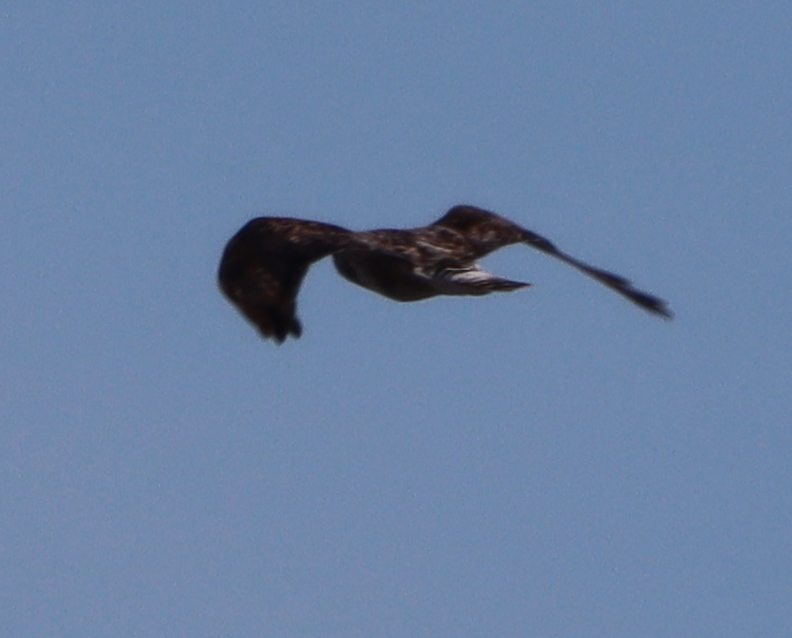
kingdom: Animalia
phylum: Chordata
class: Aves
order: Accipitriformes
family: Accipitridae
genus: Buteo
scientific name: Buteo lagopus
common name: Rough-legged buzzard
